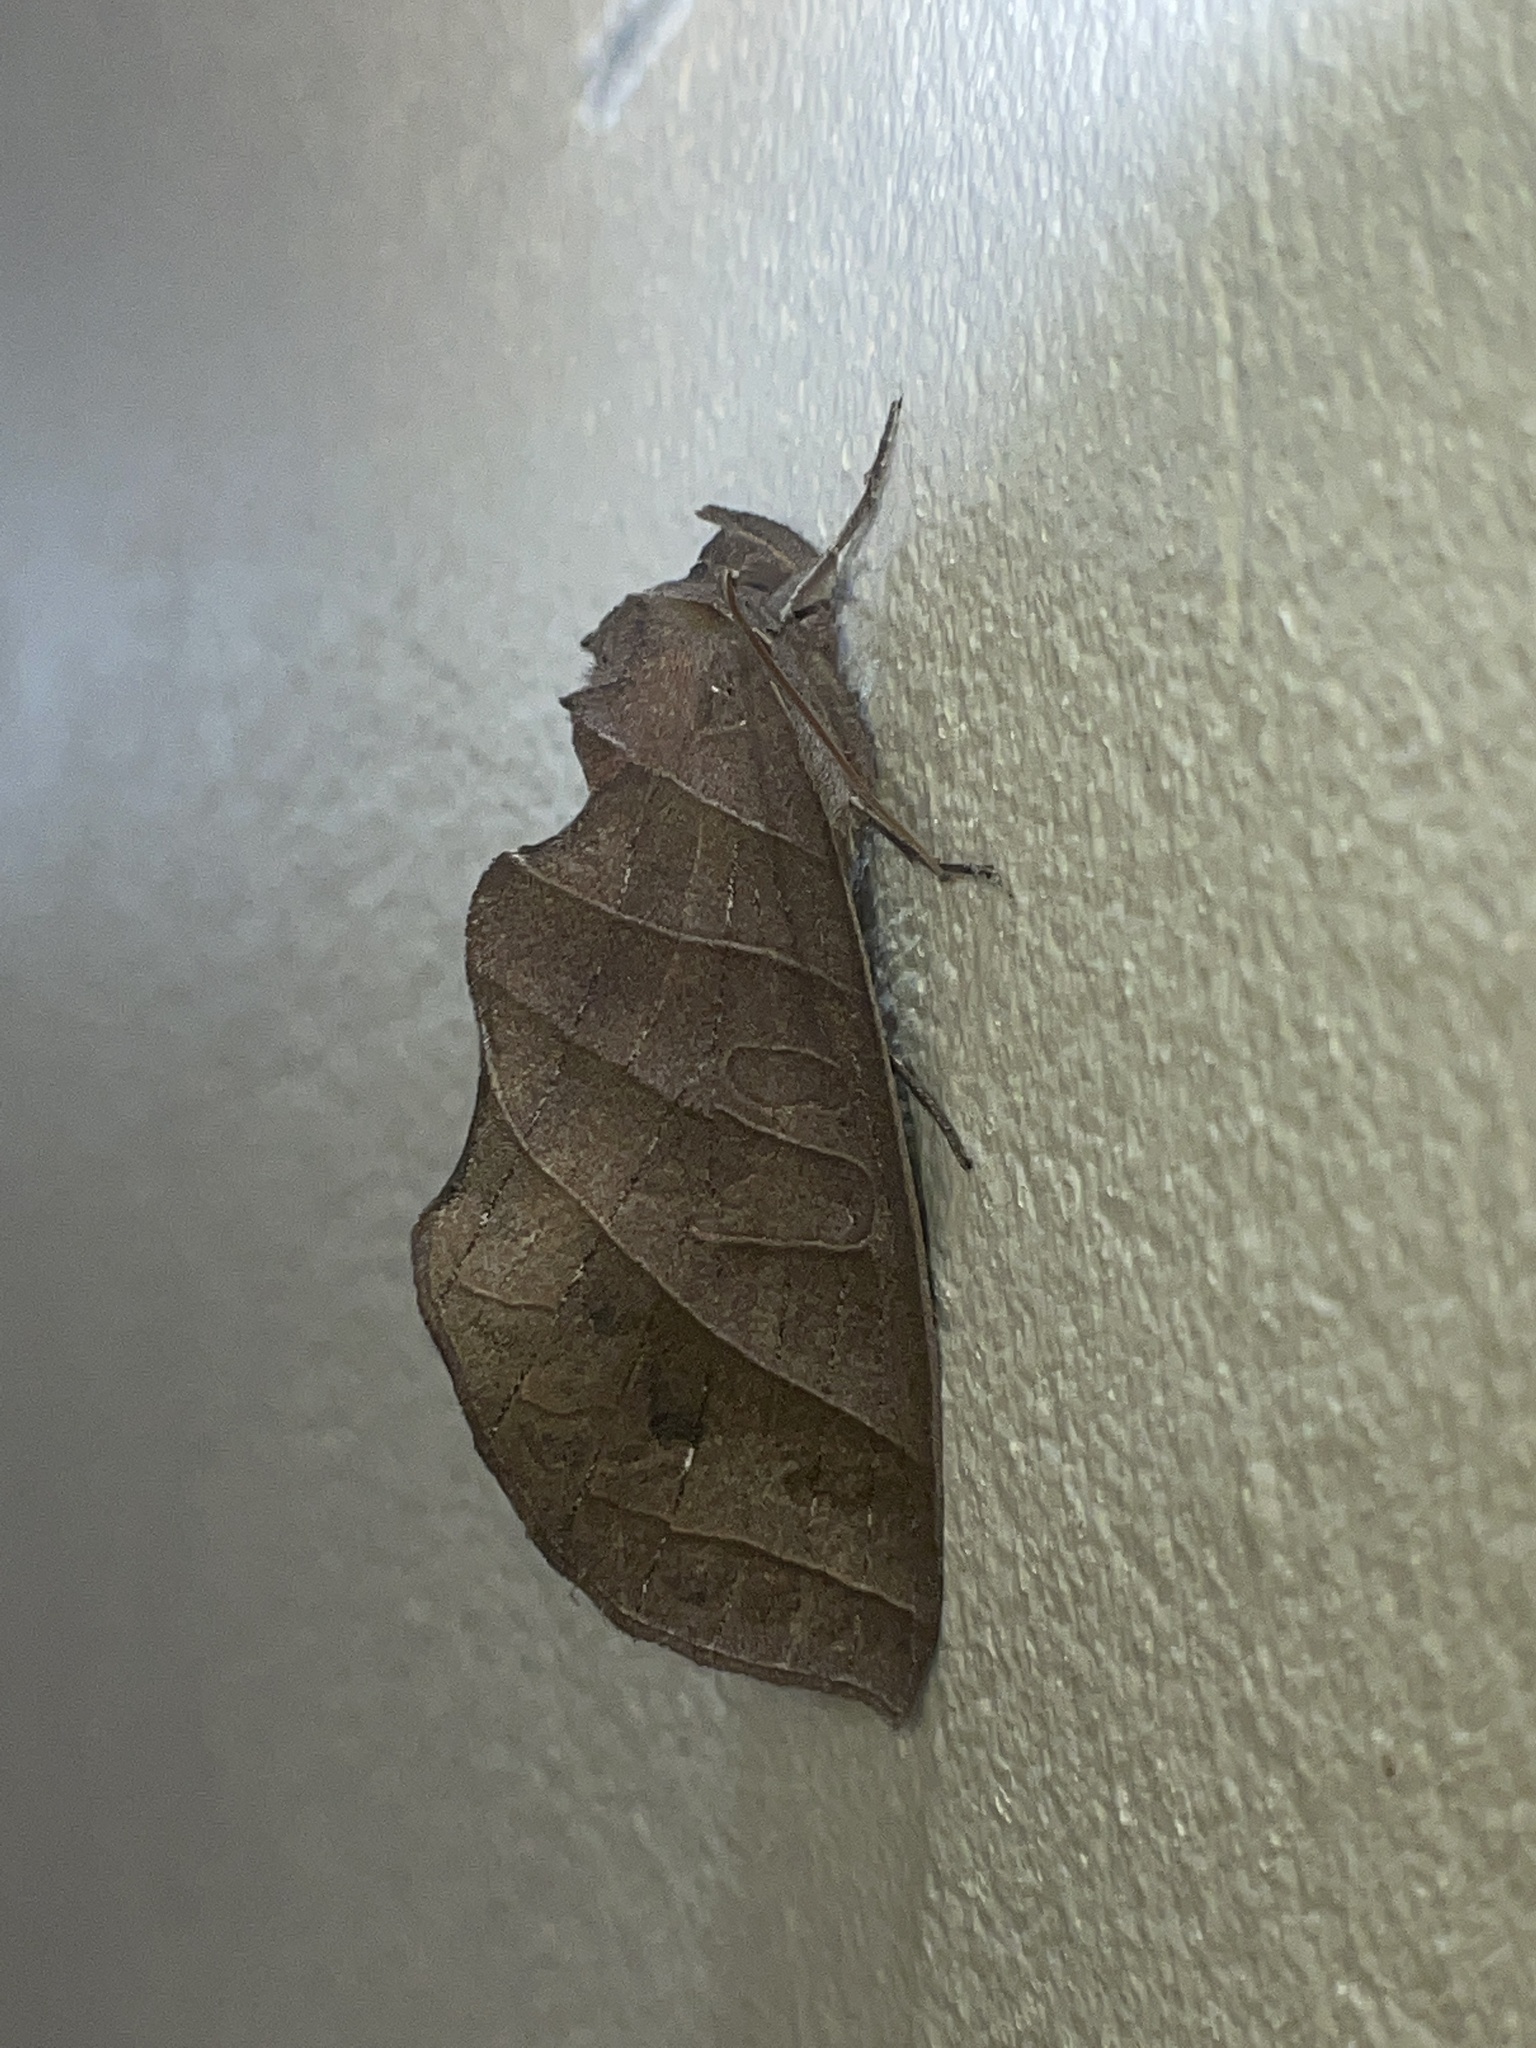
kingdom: Animalia
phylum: Arthropoda
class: Insecta
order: Lepidoptera
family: Notodontidae
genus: Antaea
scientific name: Antaea juturna
